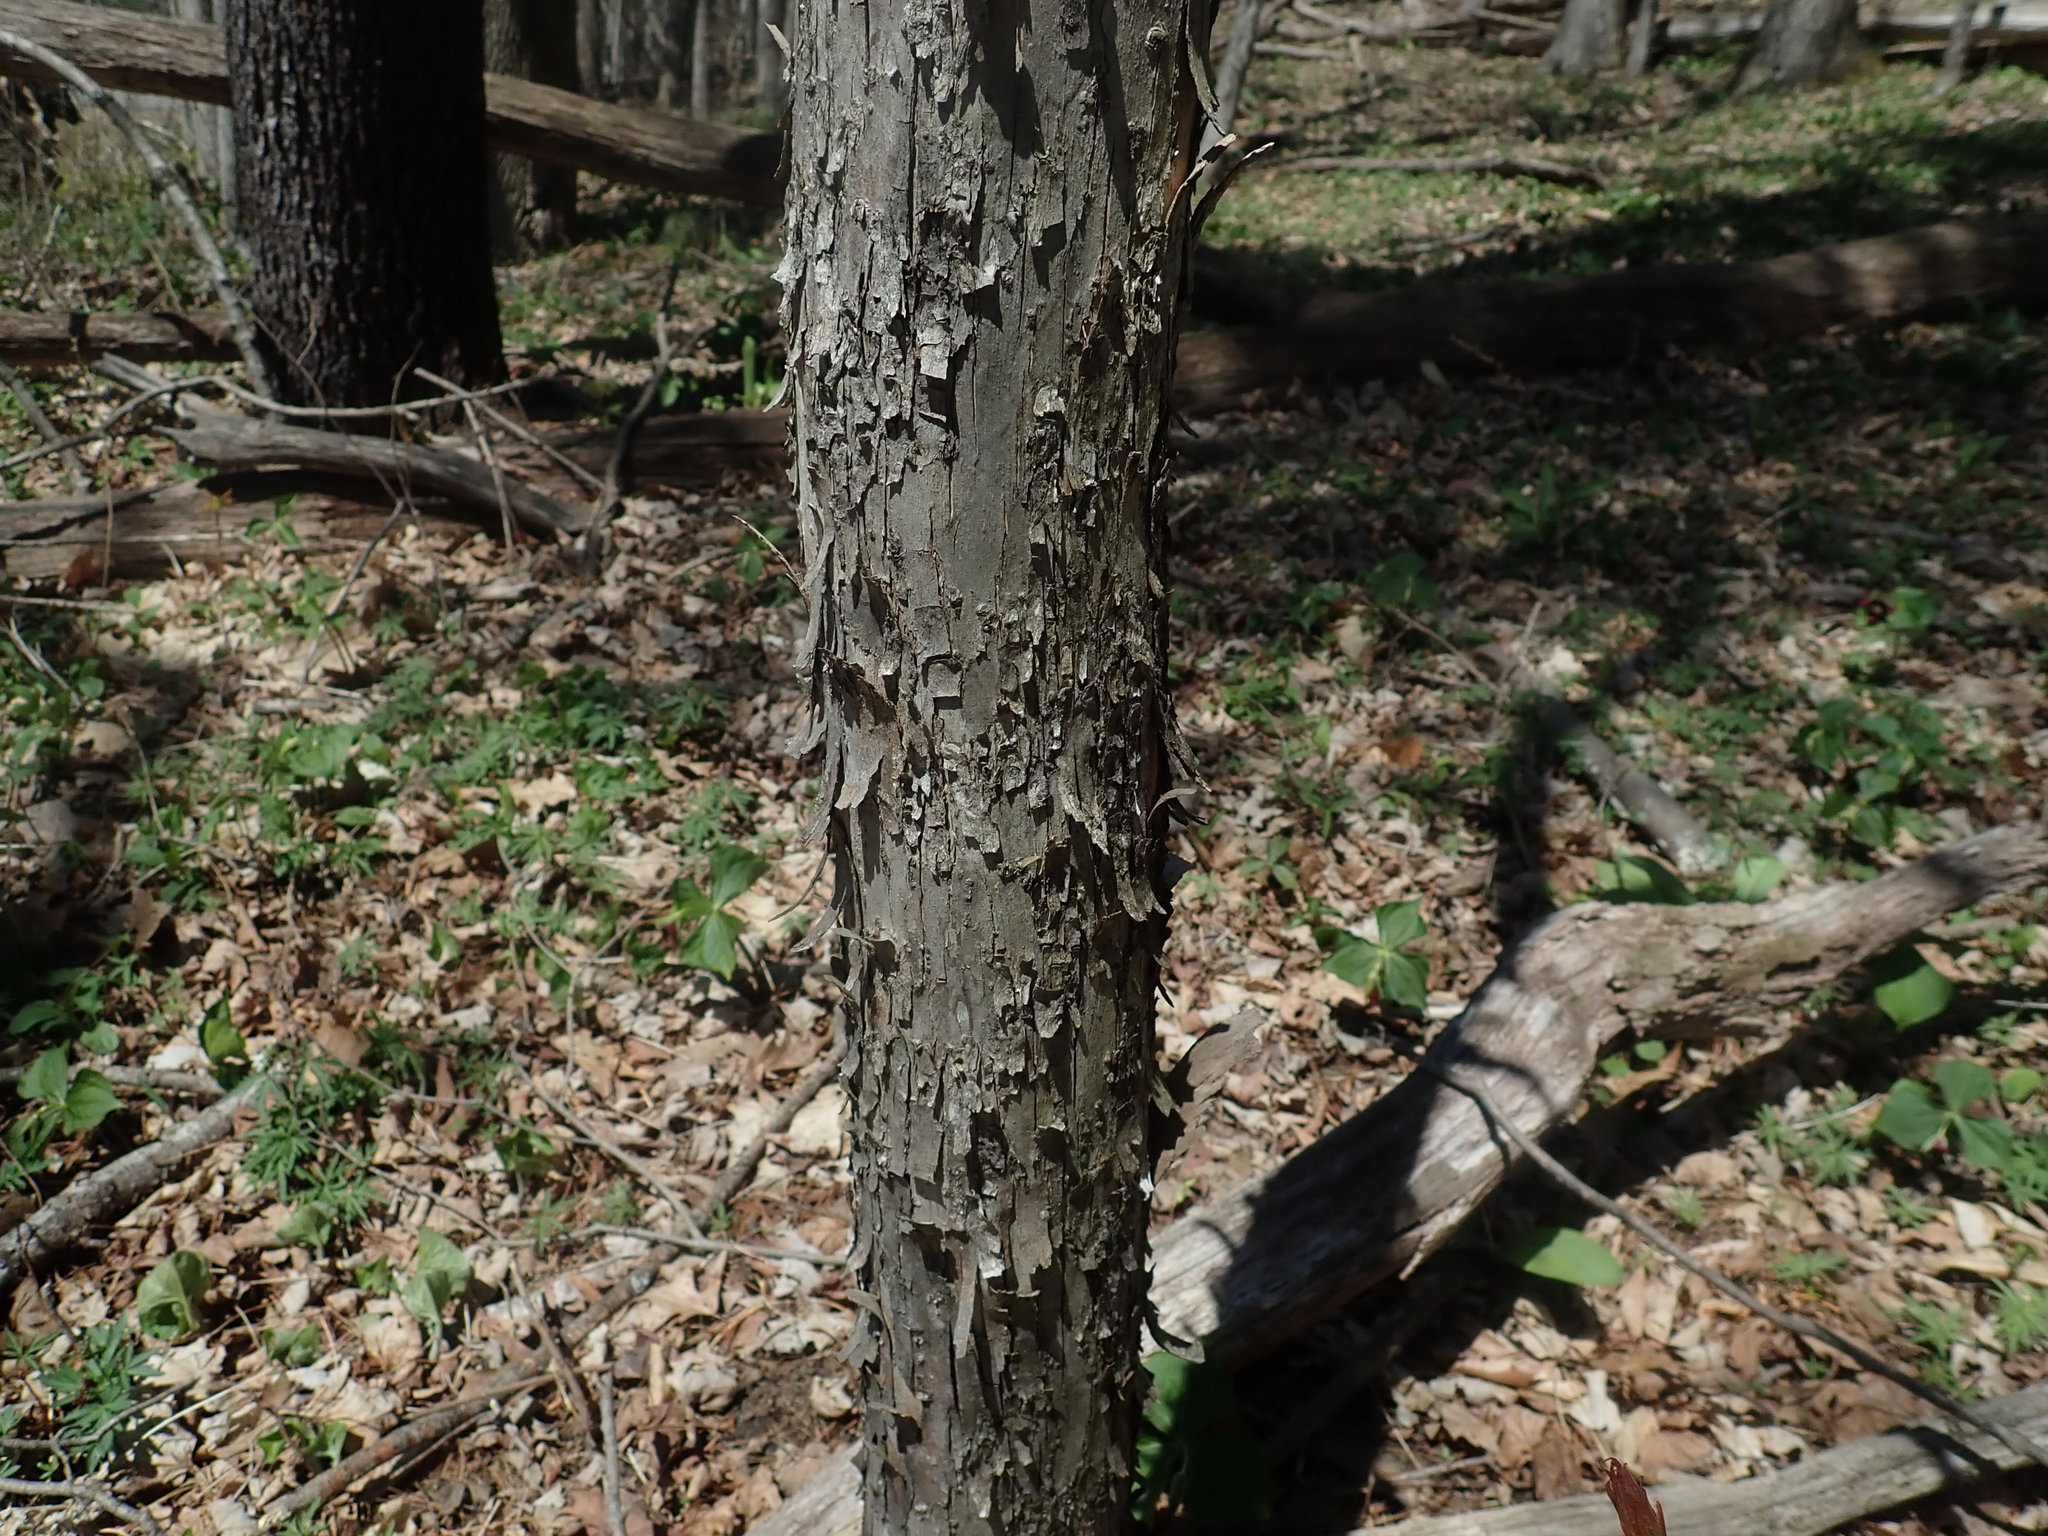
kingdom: Plantae
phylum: Tracheophyta
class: Magnoliopsida
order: Fagales
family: Betulaceae
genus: Ostrya
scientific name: Ostrya virginiana
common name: Ironwood
